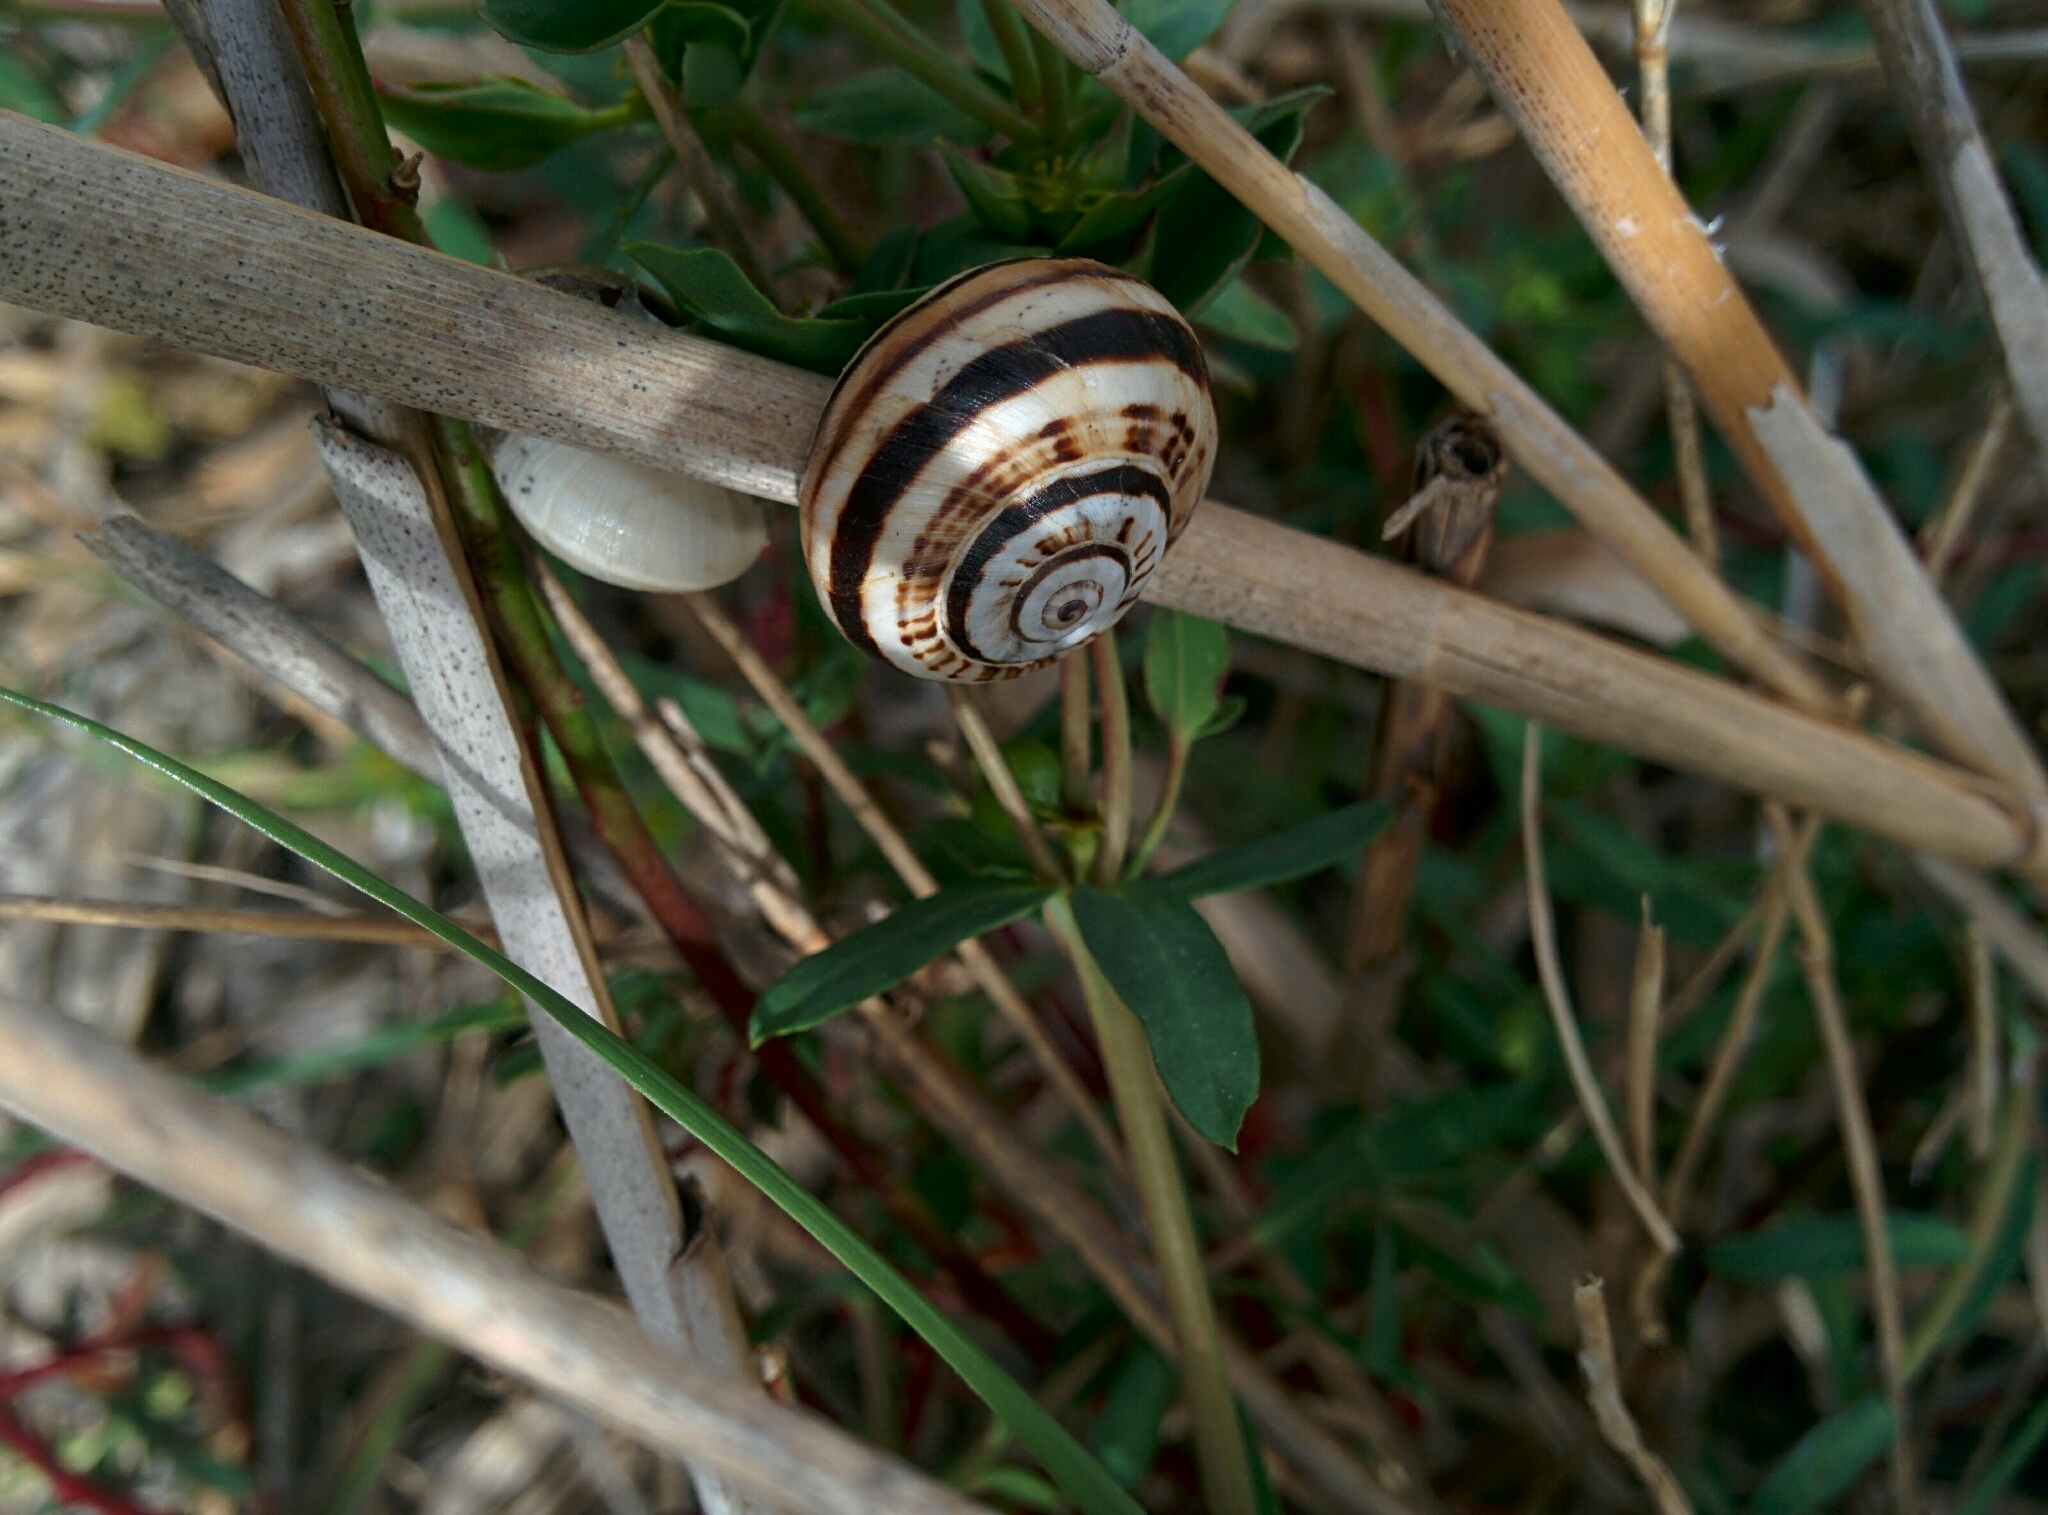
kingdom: Animalia
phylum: Mollusca
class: Gastropoda
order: Stylommatophora
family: Helicidae
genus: Theba
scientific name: Theba pisana
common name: White snail
